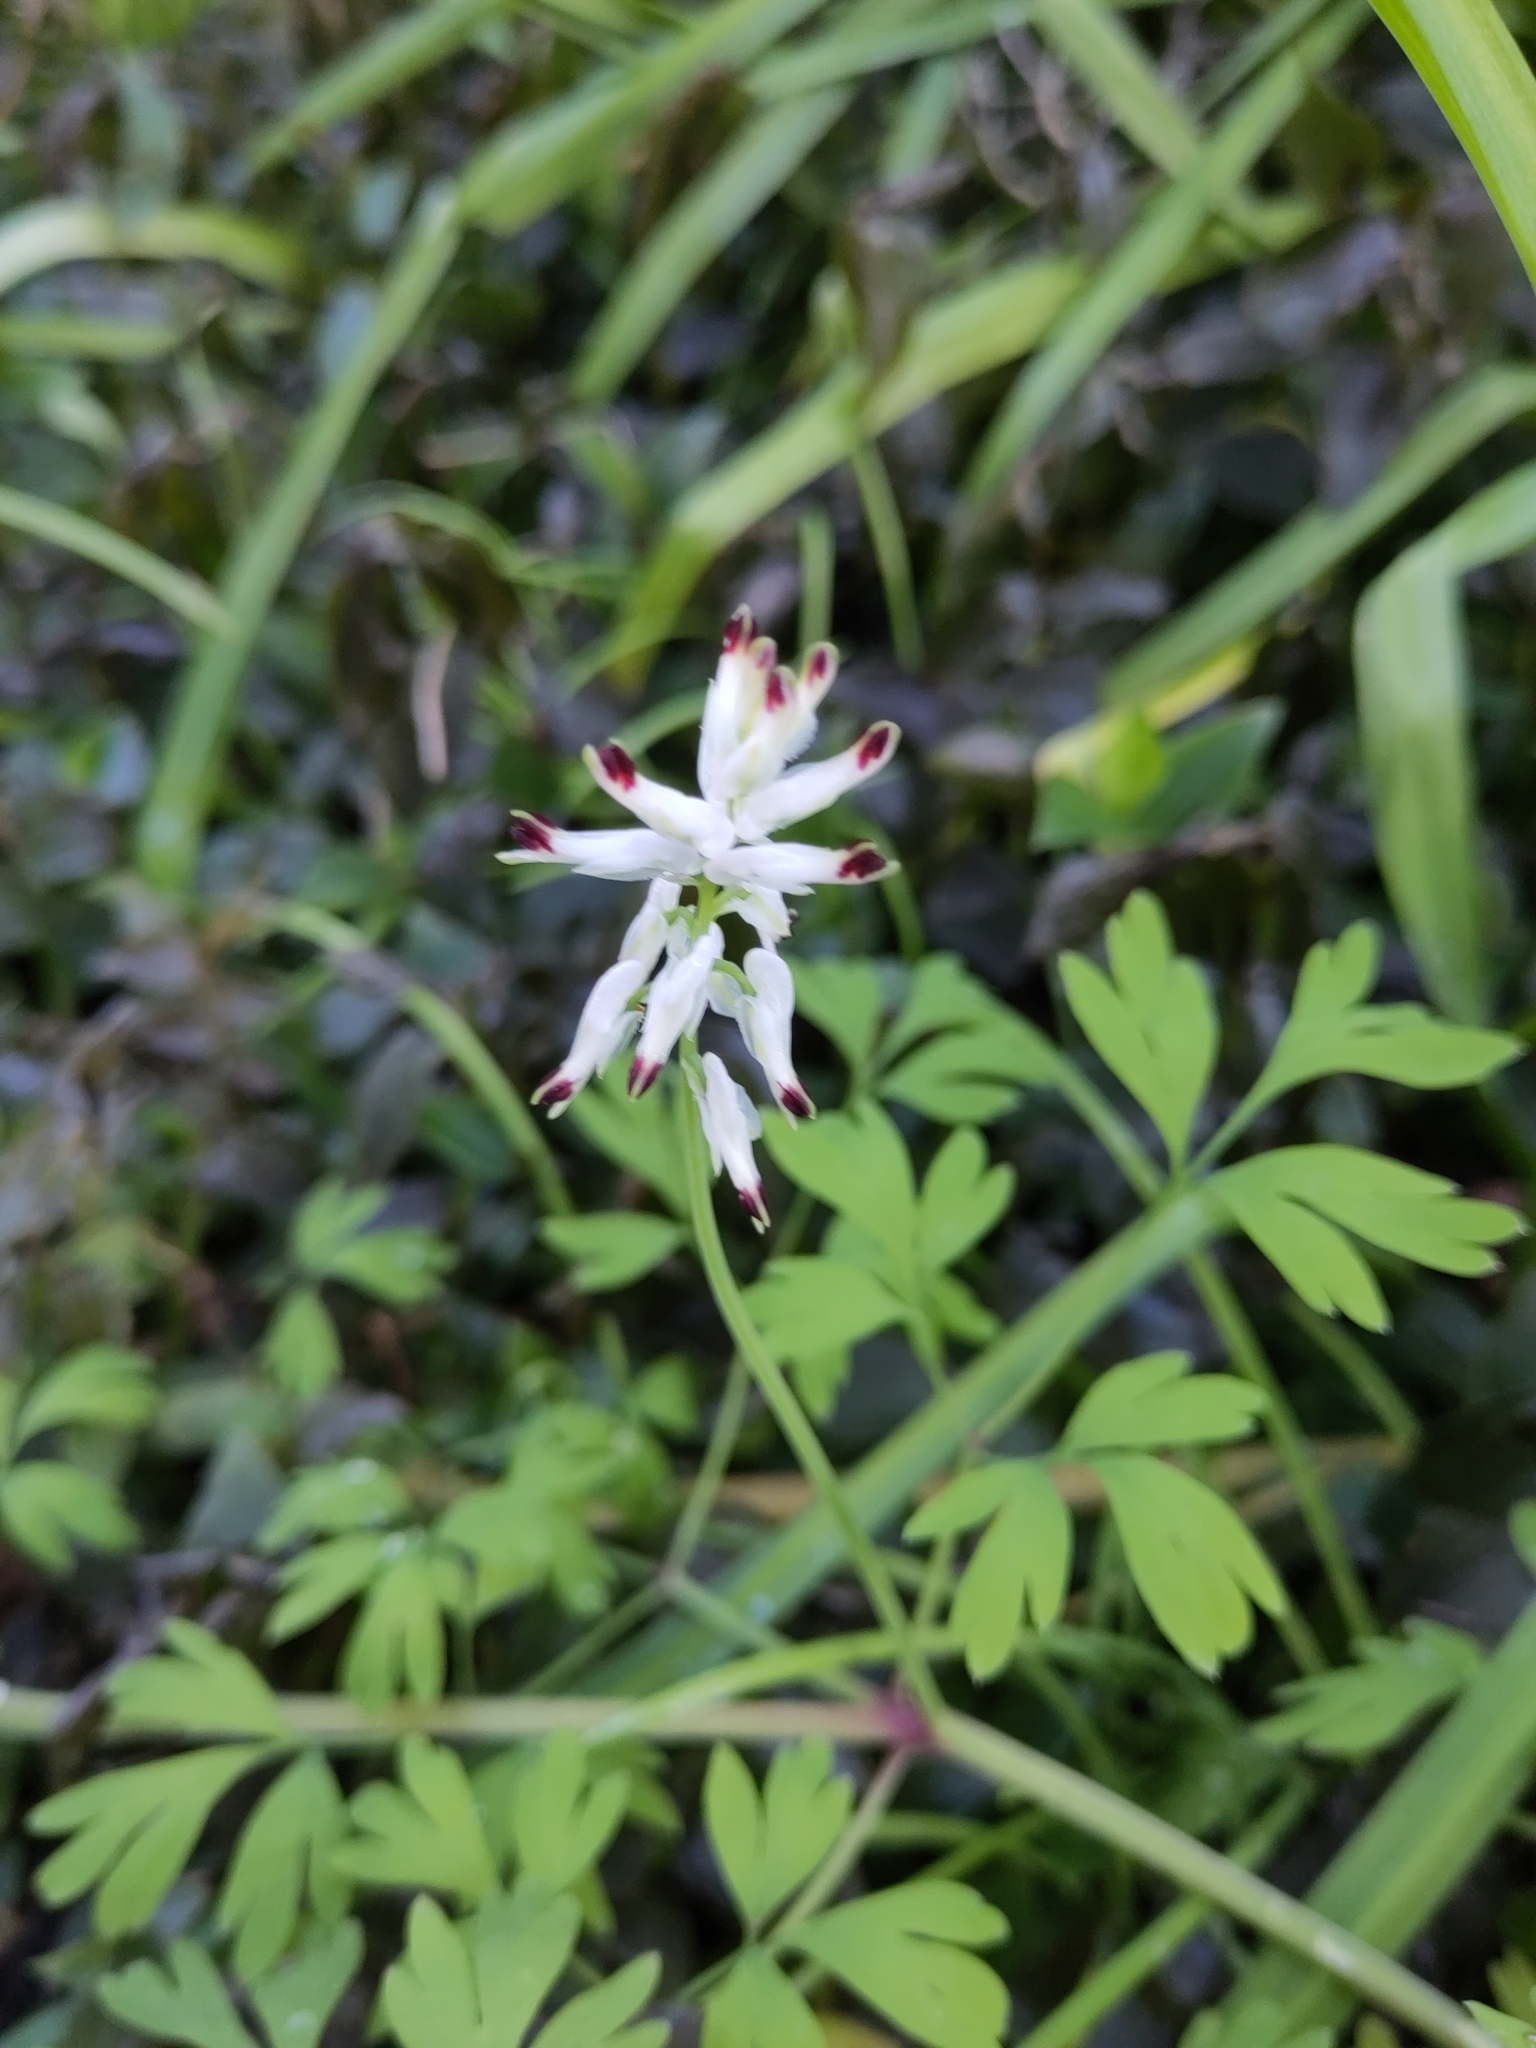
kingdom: Plantae
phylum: Tracheophyta
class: Magnoliopsida
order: Ranunculales
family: Papaveraceae
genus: Fumaria
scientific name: Fumaria capreolata
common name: White ramping-fumitory
